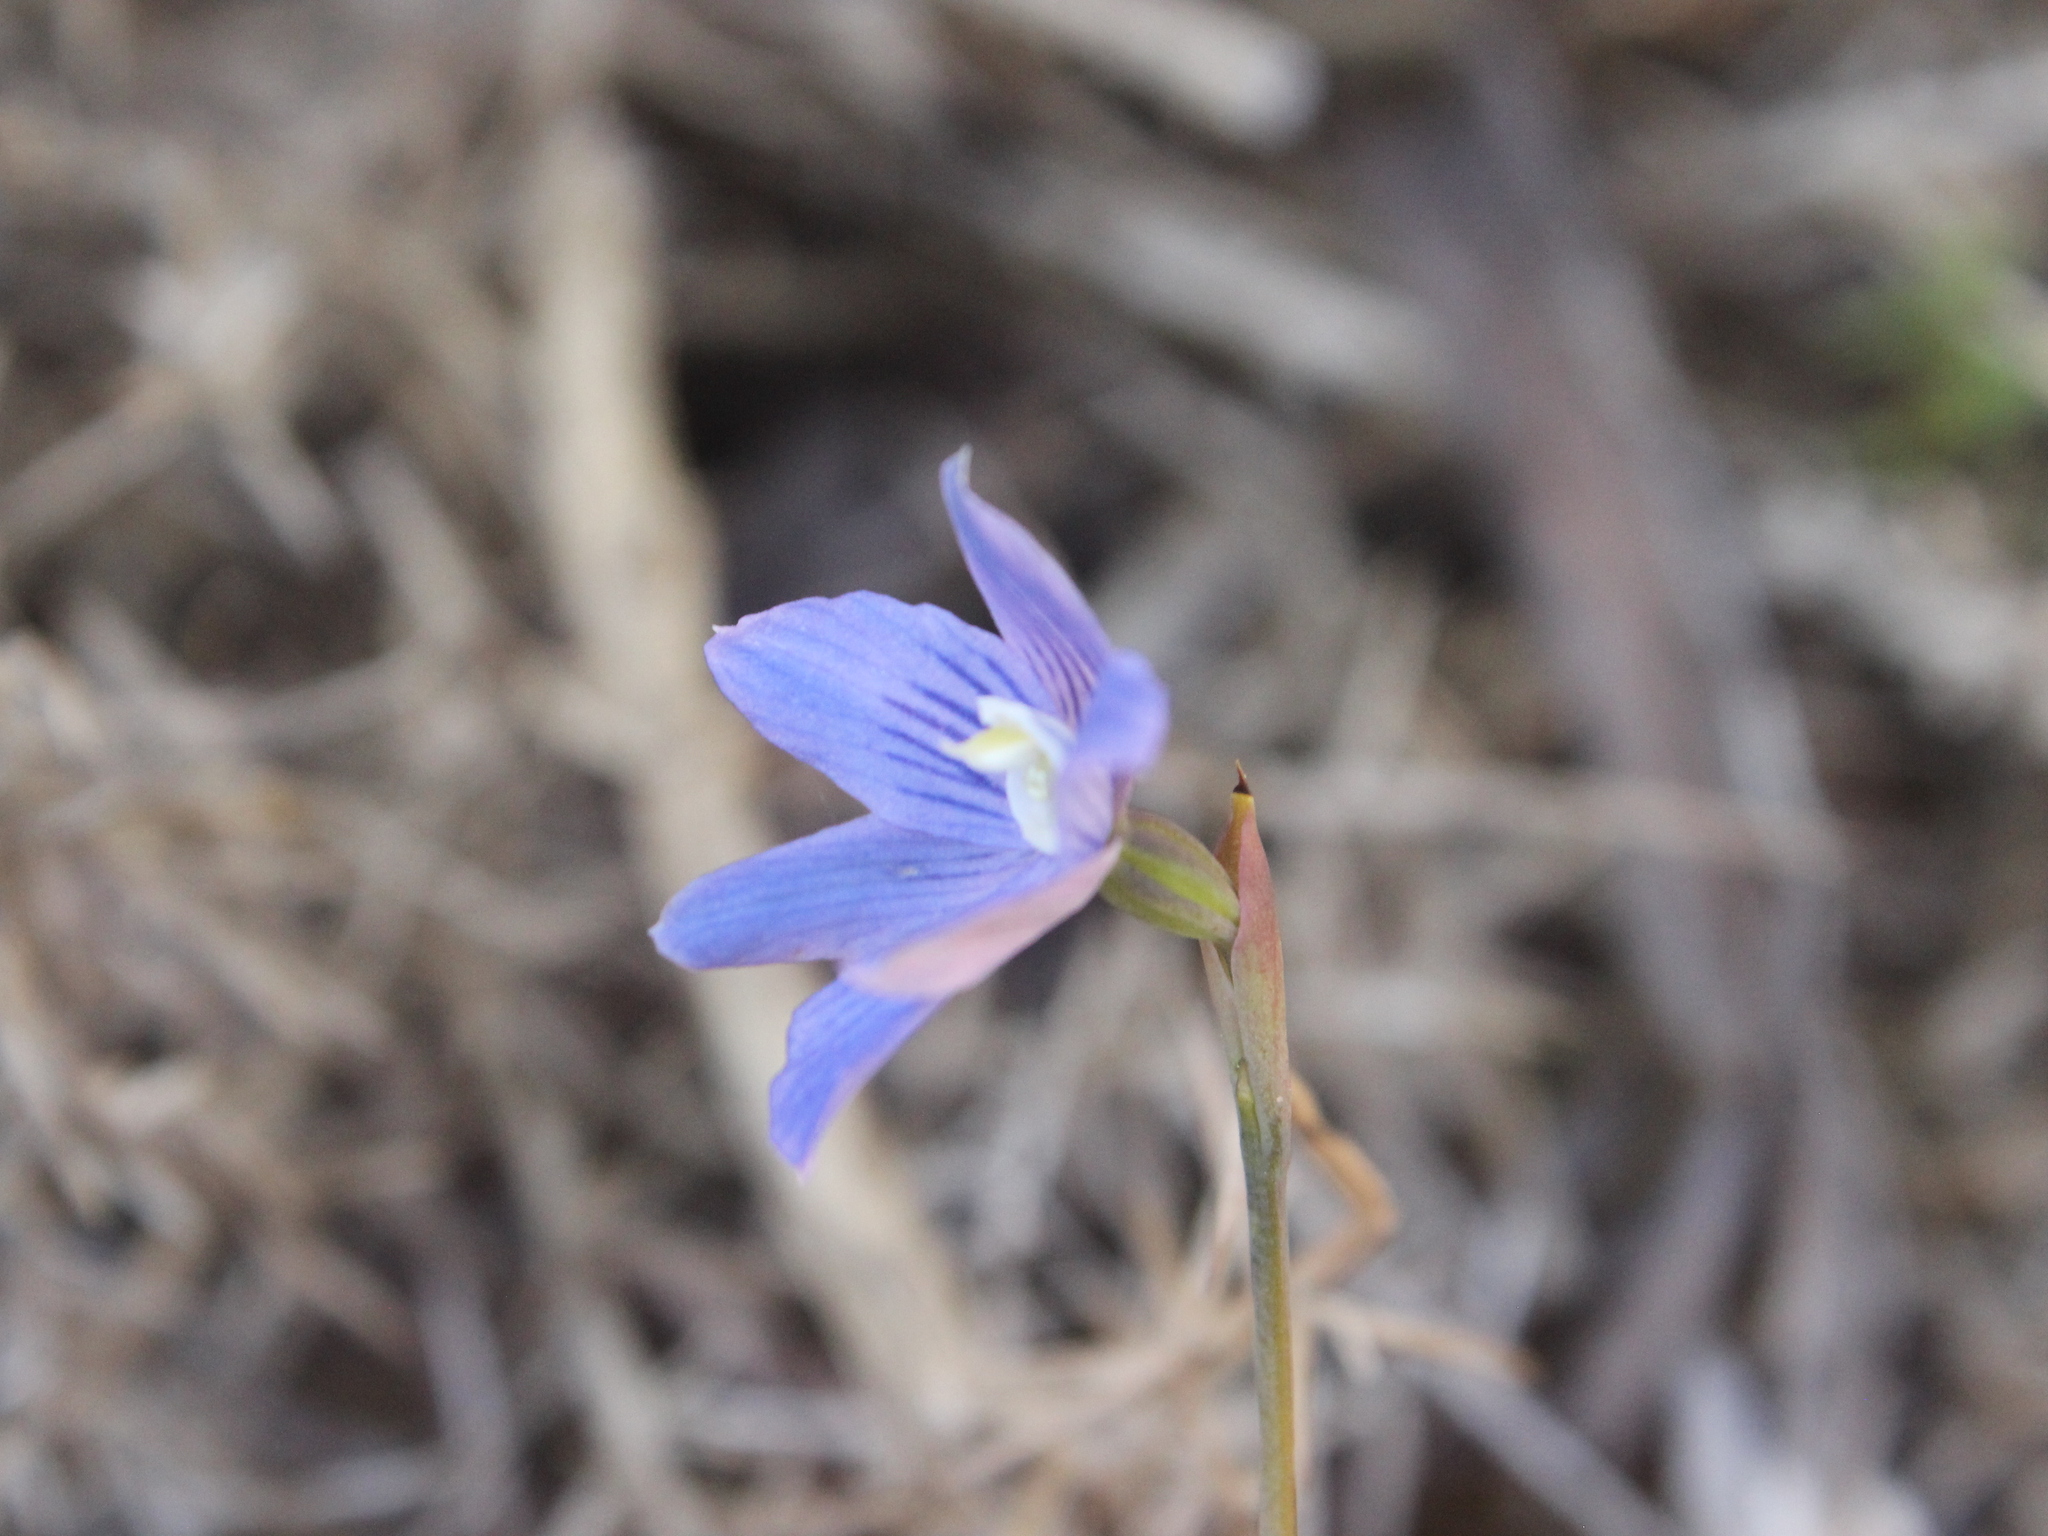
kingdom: Plantae
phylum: Tracheophyta
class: Liliopsida
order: Asparagales
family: Orchidaceae
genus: Thelymitra
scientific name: Thelymitra cyanea
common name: Blue sun-orchid
